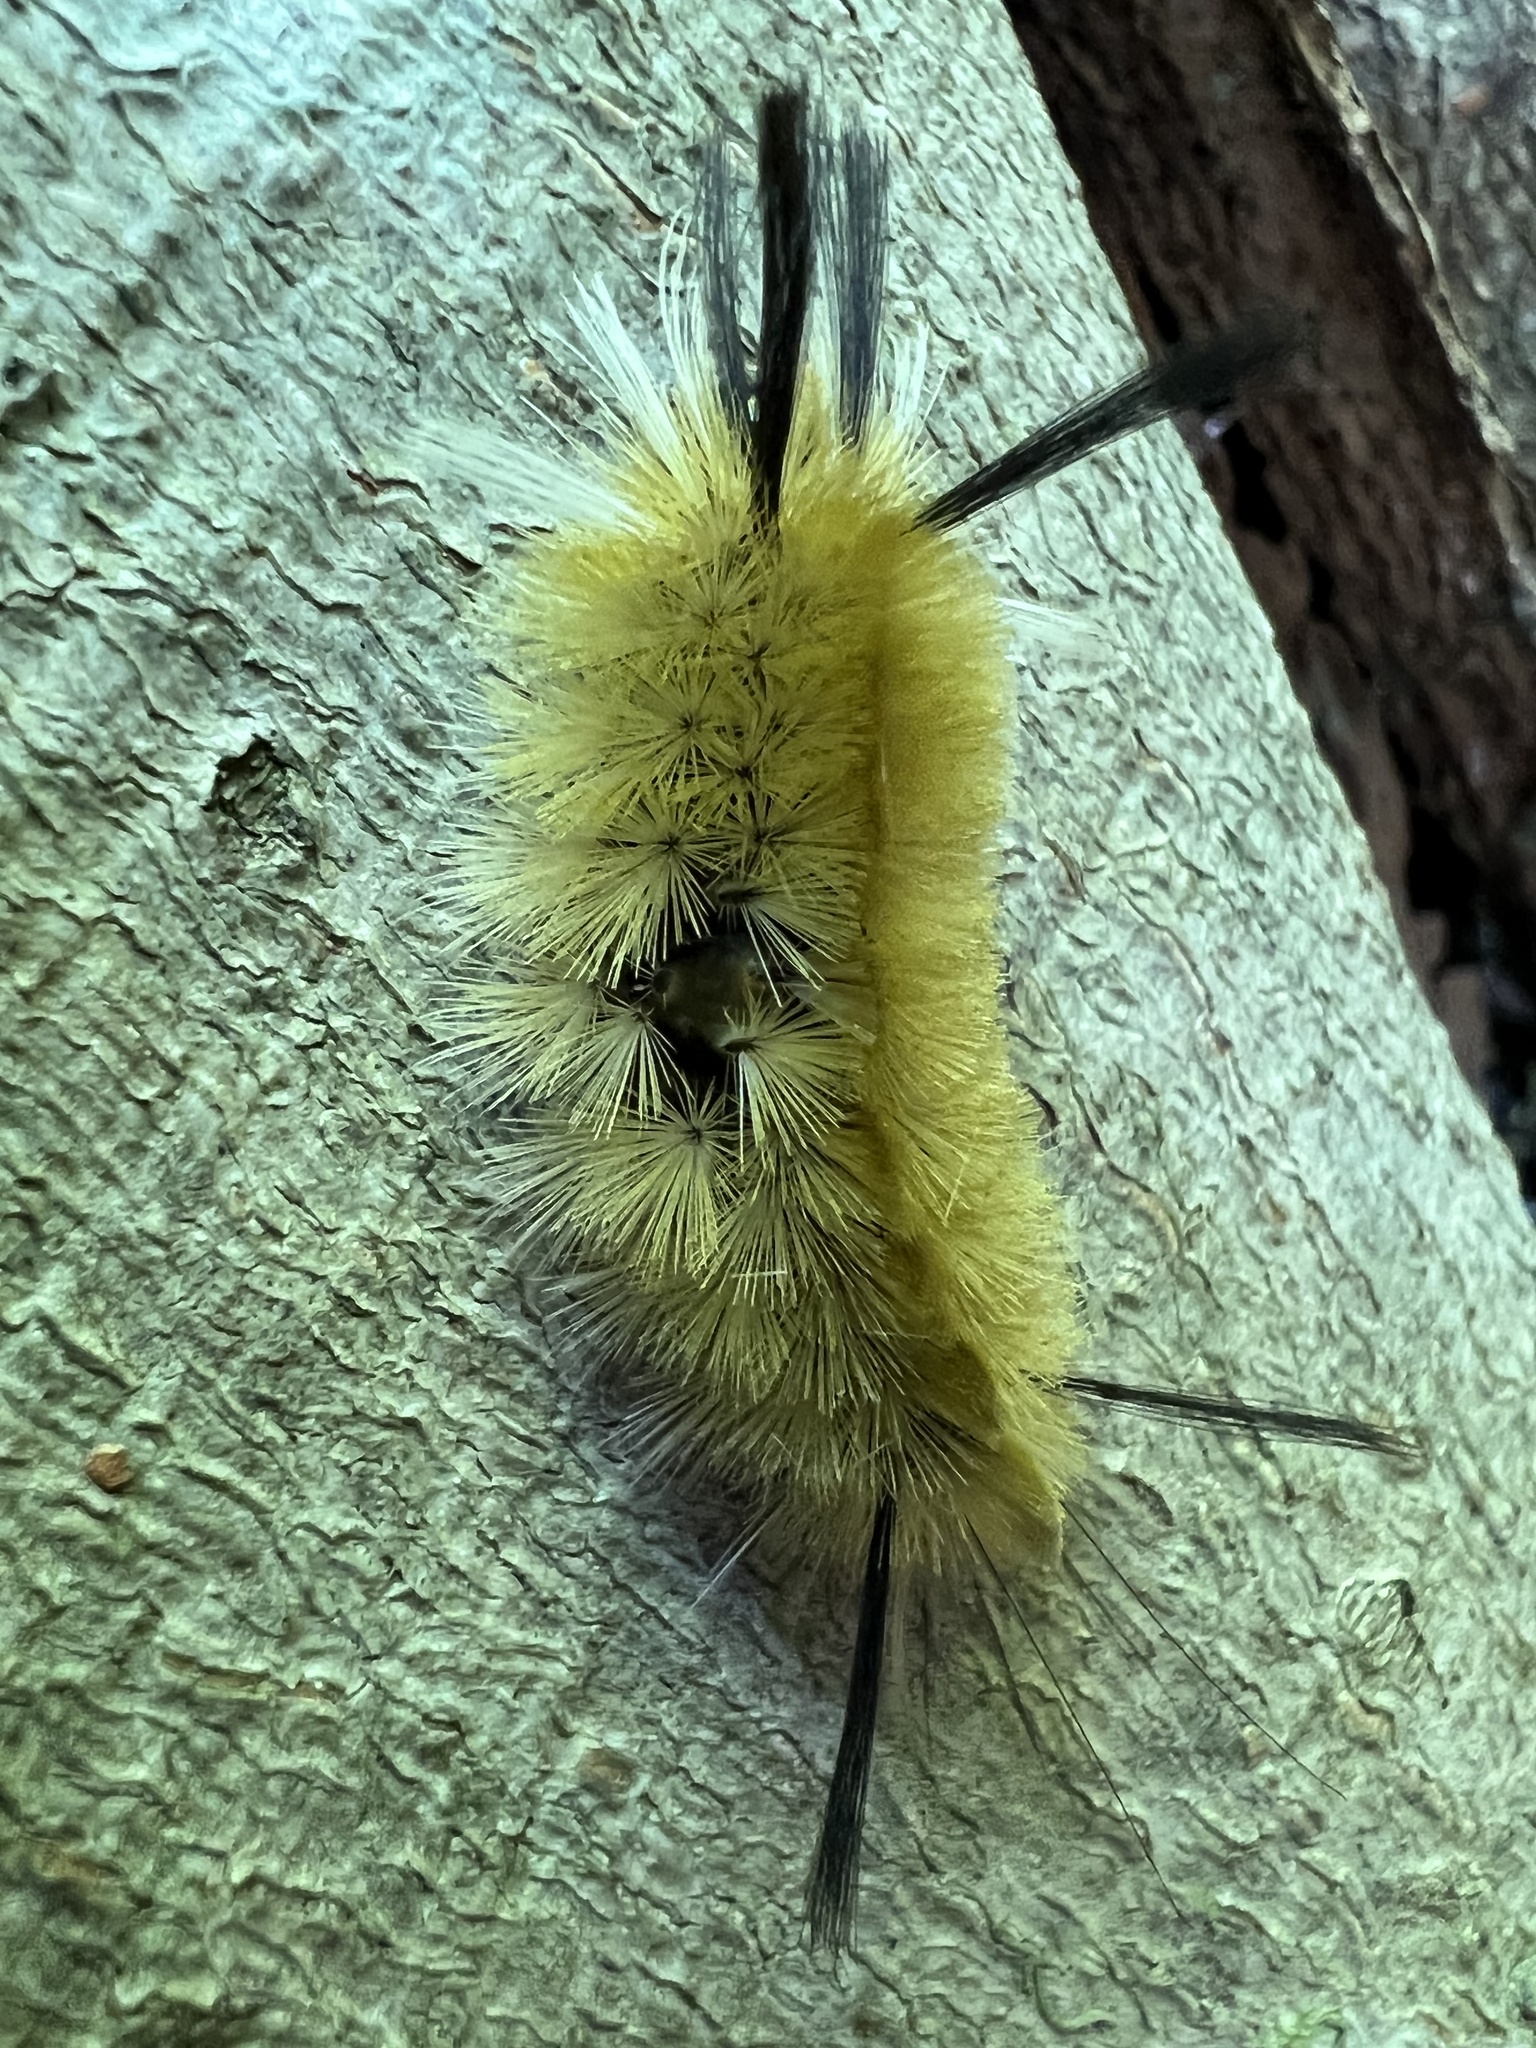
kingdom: Animalia
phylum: Arthropoda
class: Insecta
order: Lepidoptera
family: Erebidae
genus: Halysidota
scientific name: Halysidota tessellaris
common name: Banded tussock moth
